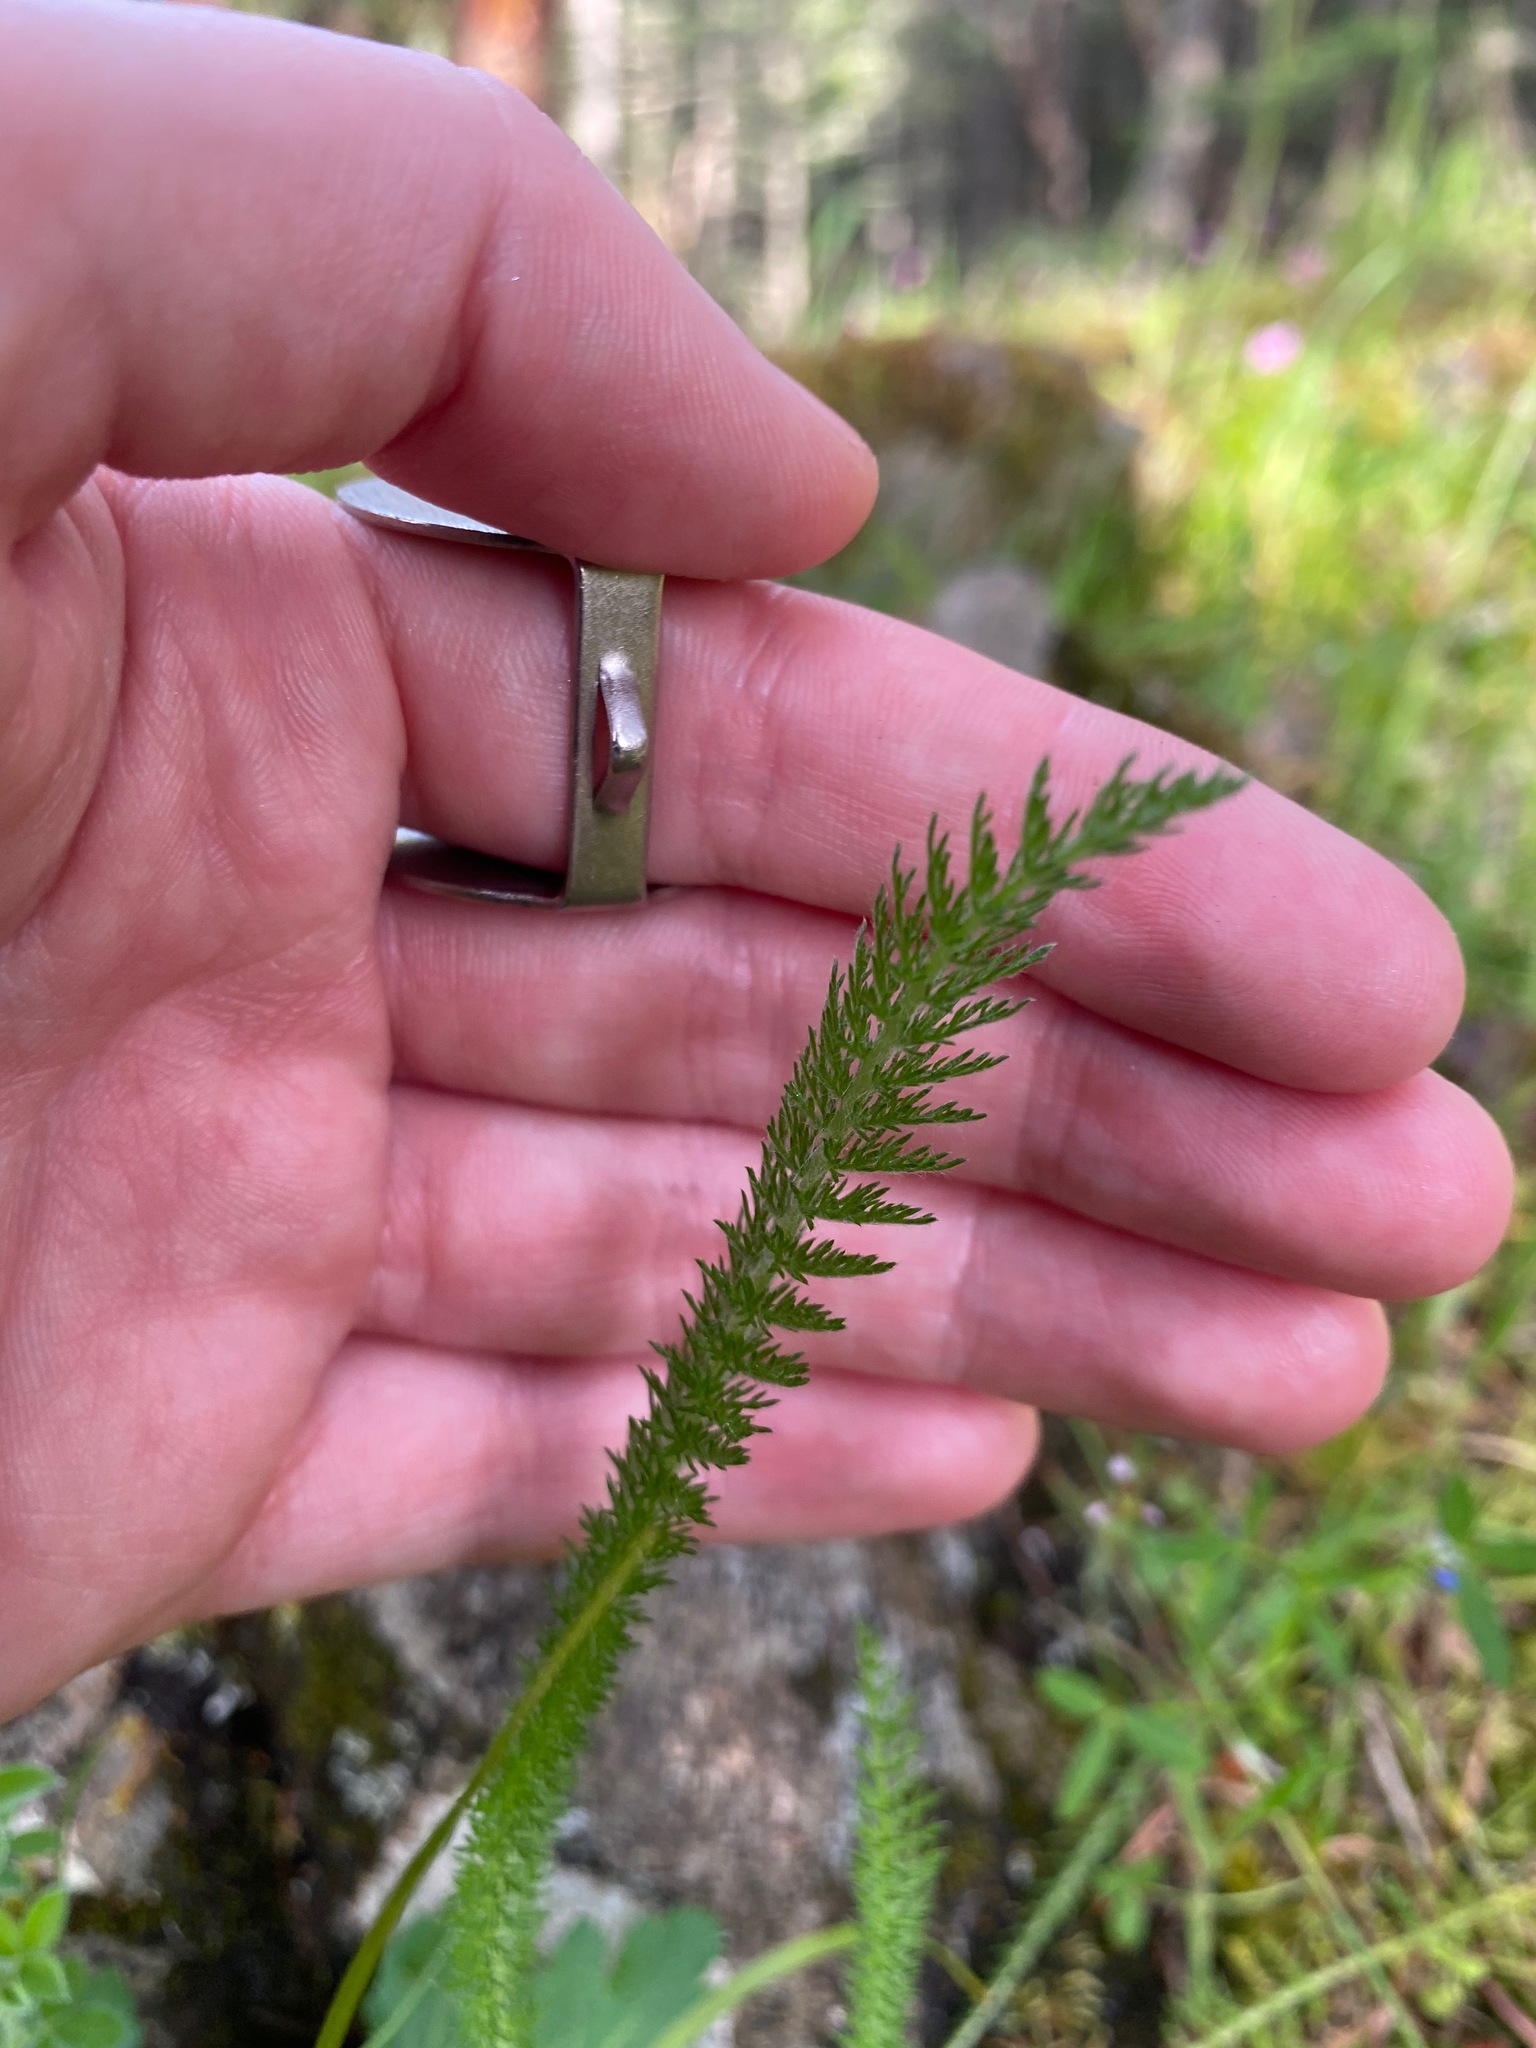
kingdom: Plantae
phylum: Tracheophyta
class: Magnoliopsida
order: Asterales
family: Asteraceae
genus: Achillea
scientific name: Achillea millefolium
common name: Yarrow
